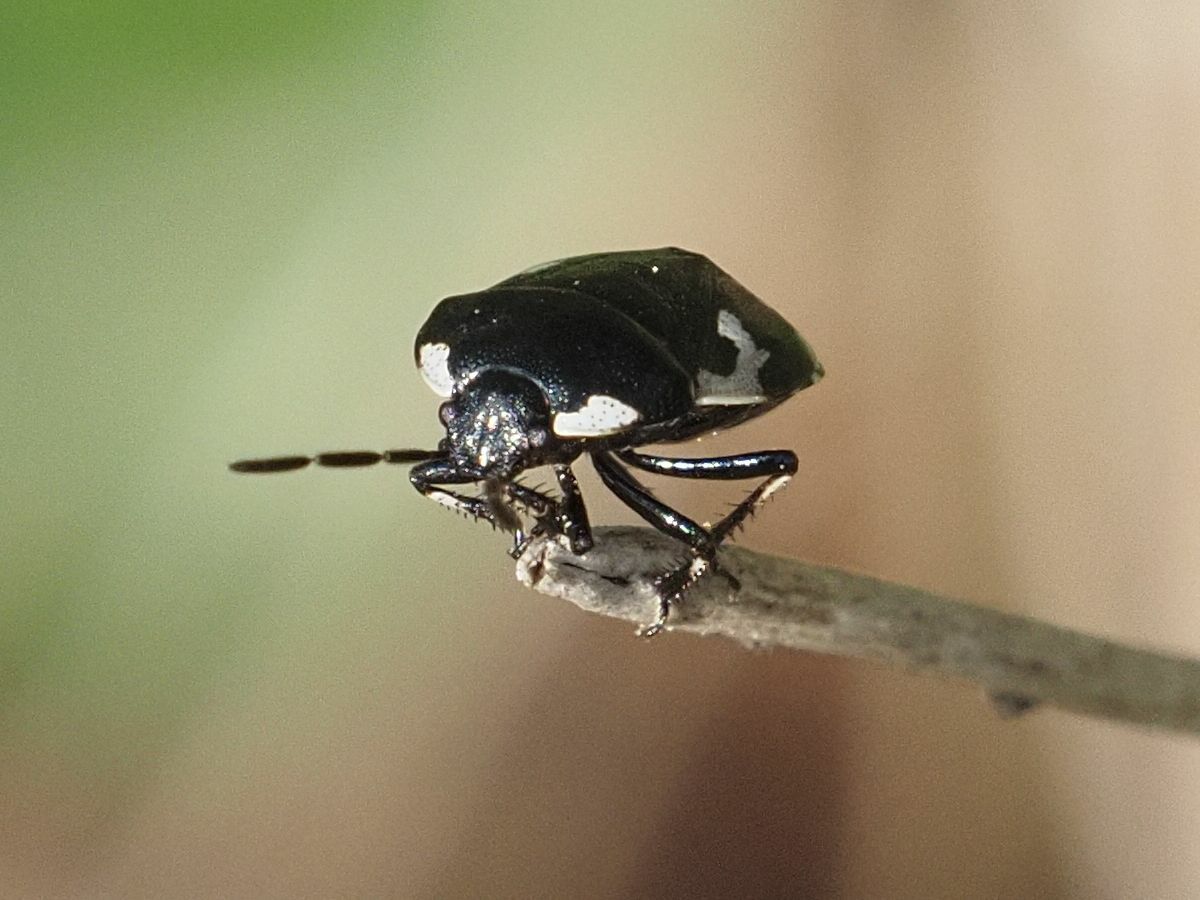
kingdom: Animalia
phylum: Arthropoda
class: Insecta
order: Hemiptera
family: Cydnidae
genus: Tritomegas
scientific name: Tritomegas bicolor
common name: Pied shieldbug
